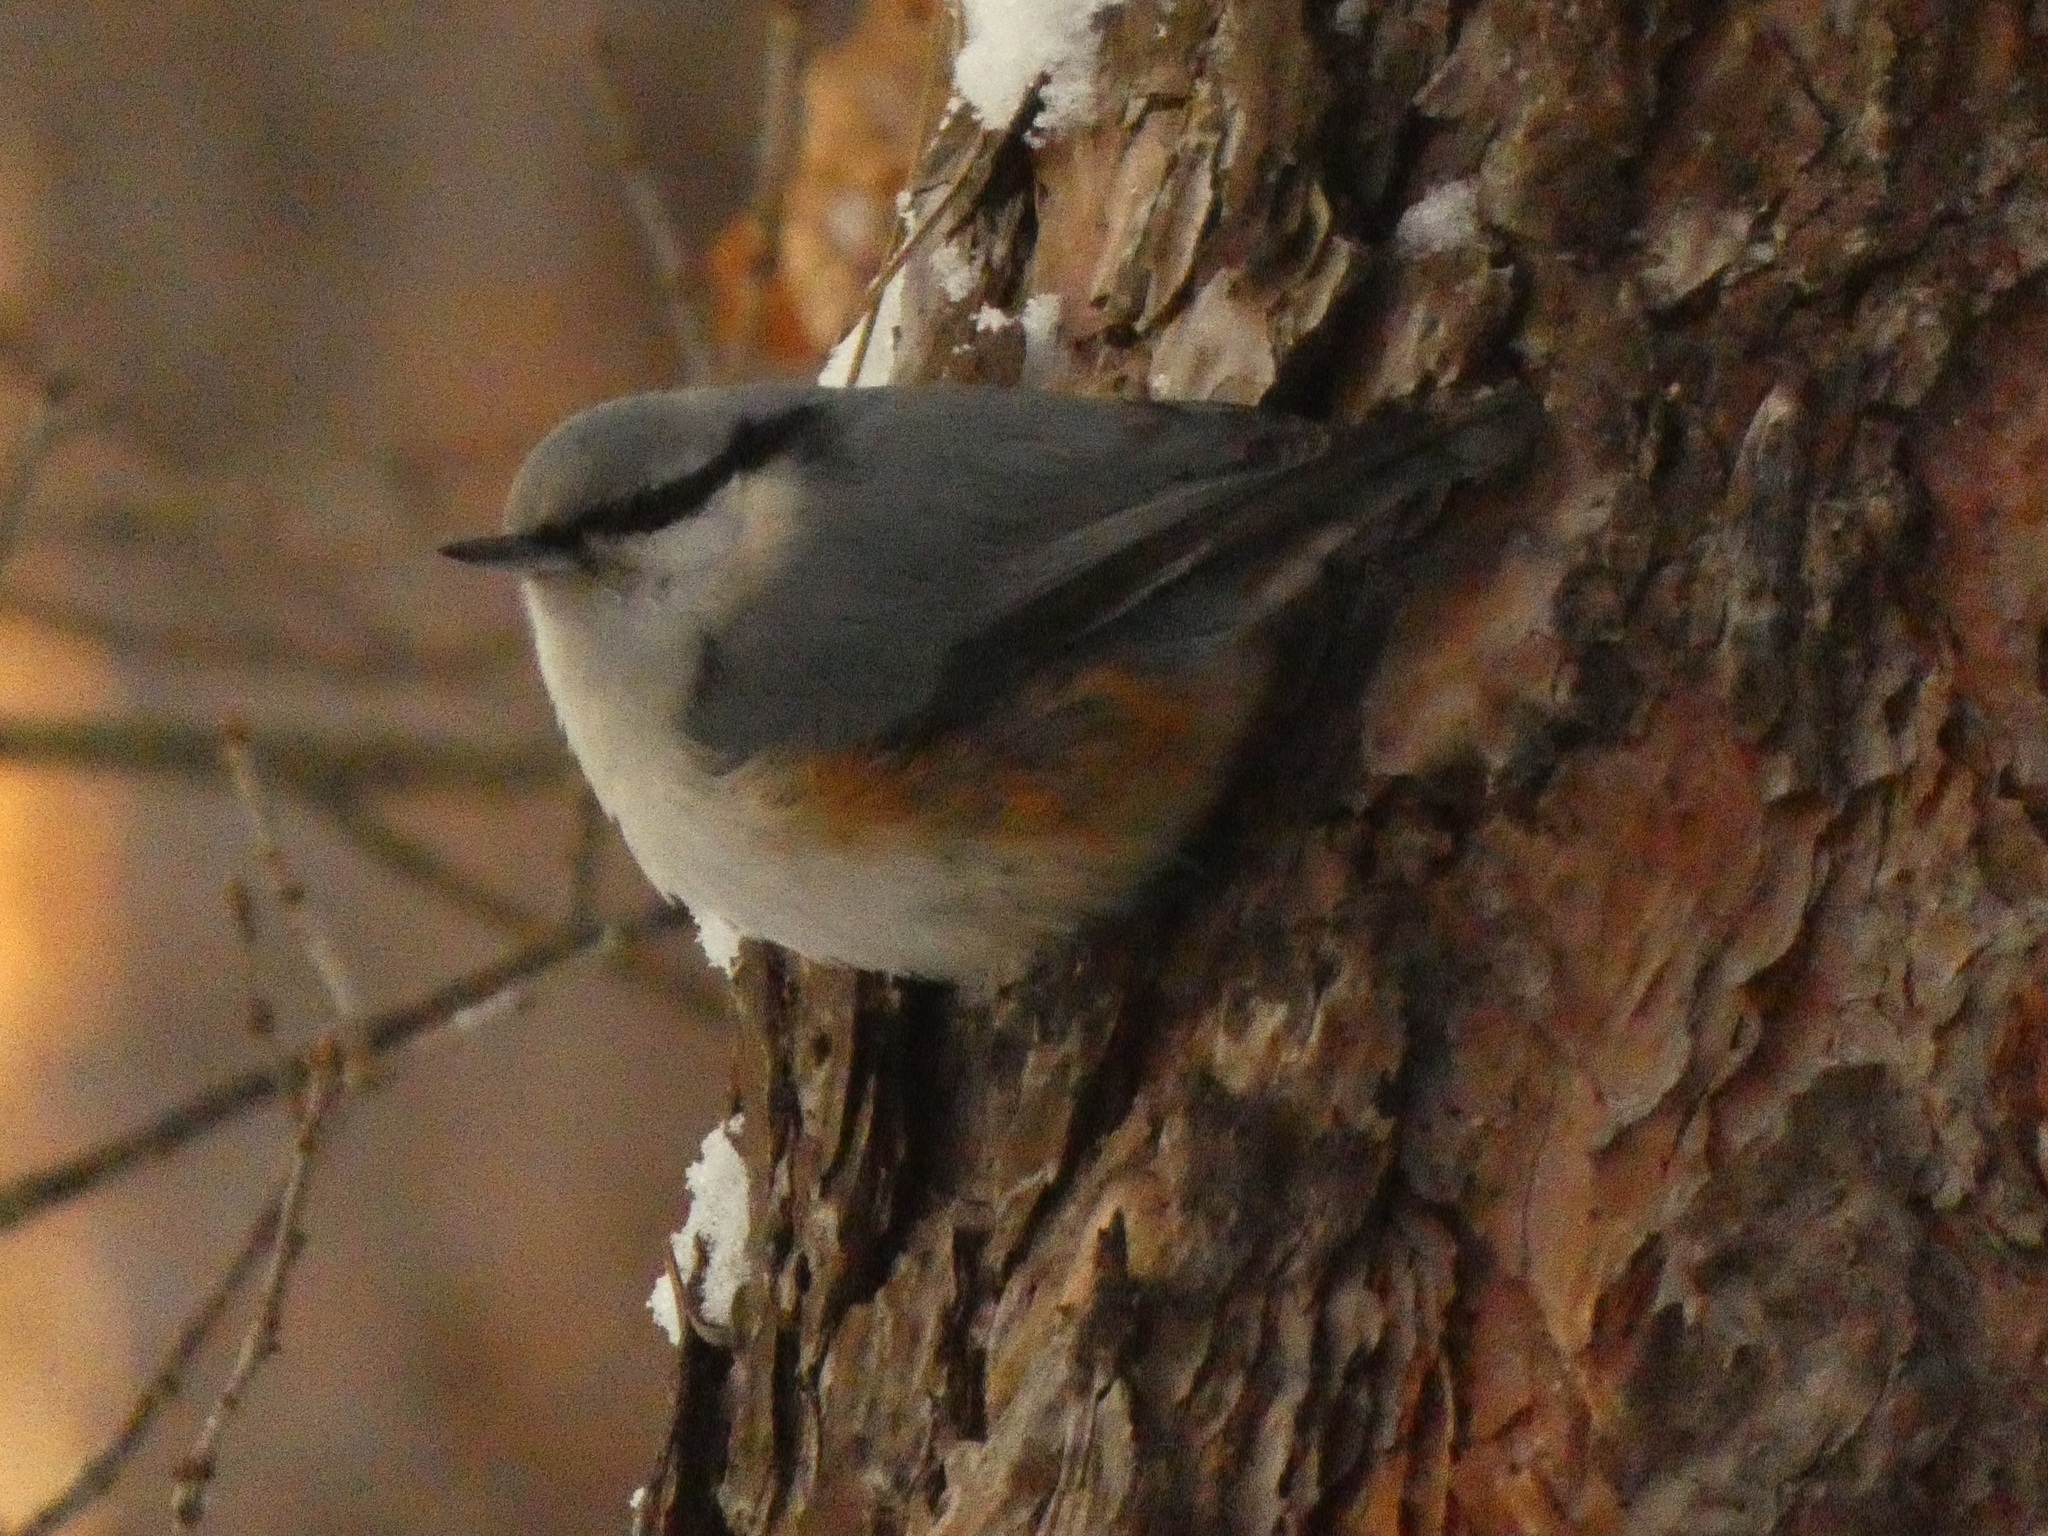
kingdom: Animalia
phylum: Chordata
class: Aves
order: Passeriformes
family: Sittidae
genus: Sitta
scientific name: Sitta europaea
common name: Eurasian nuthatch
